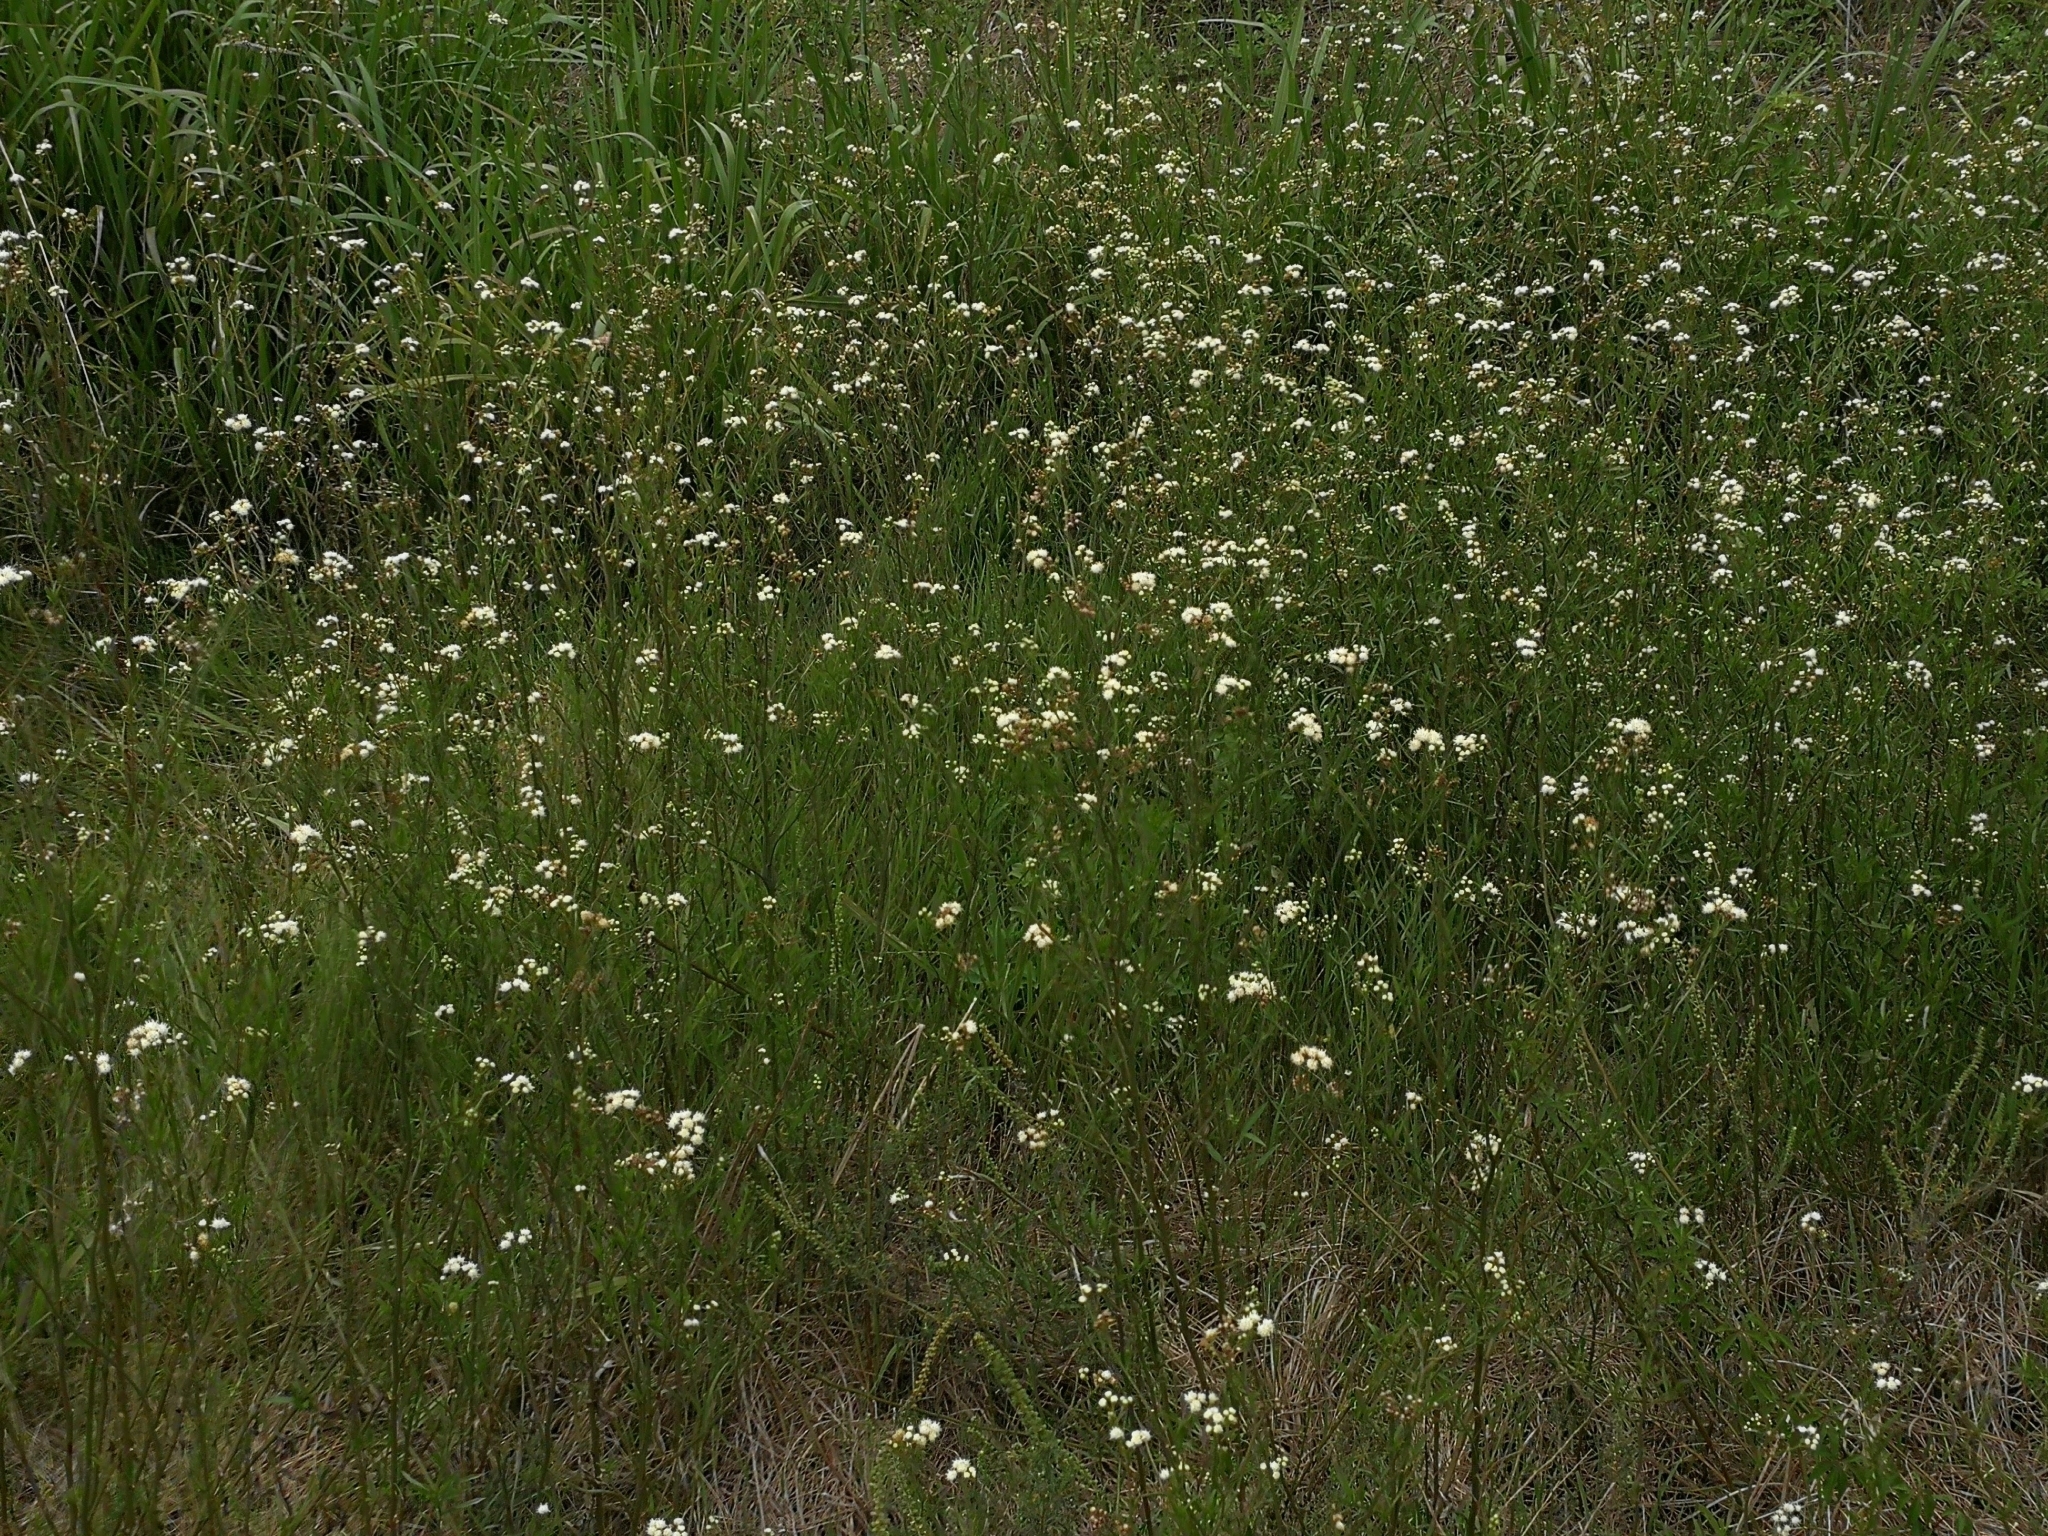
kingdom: Plantae
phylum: Tracheophyta
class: Magnoliopsida
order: Asterales
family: Asteraceae
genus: Baccharis
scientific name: Baccharis glutinosa
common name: Saltmarsh baccharis
